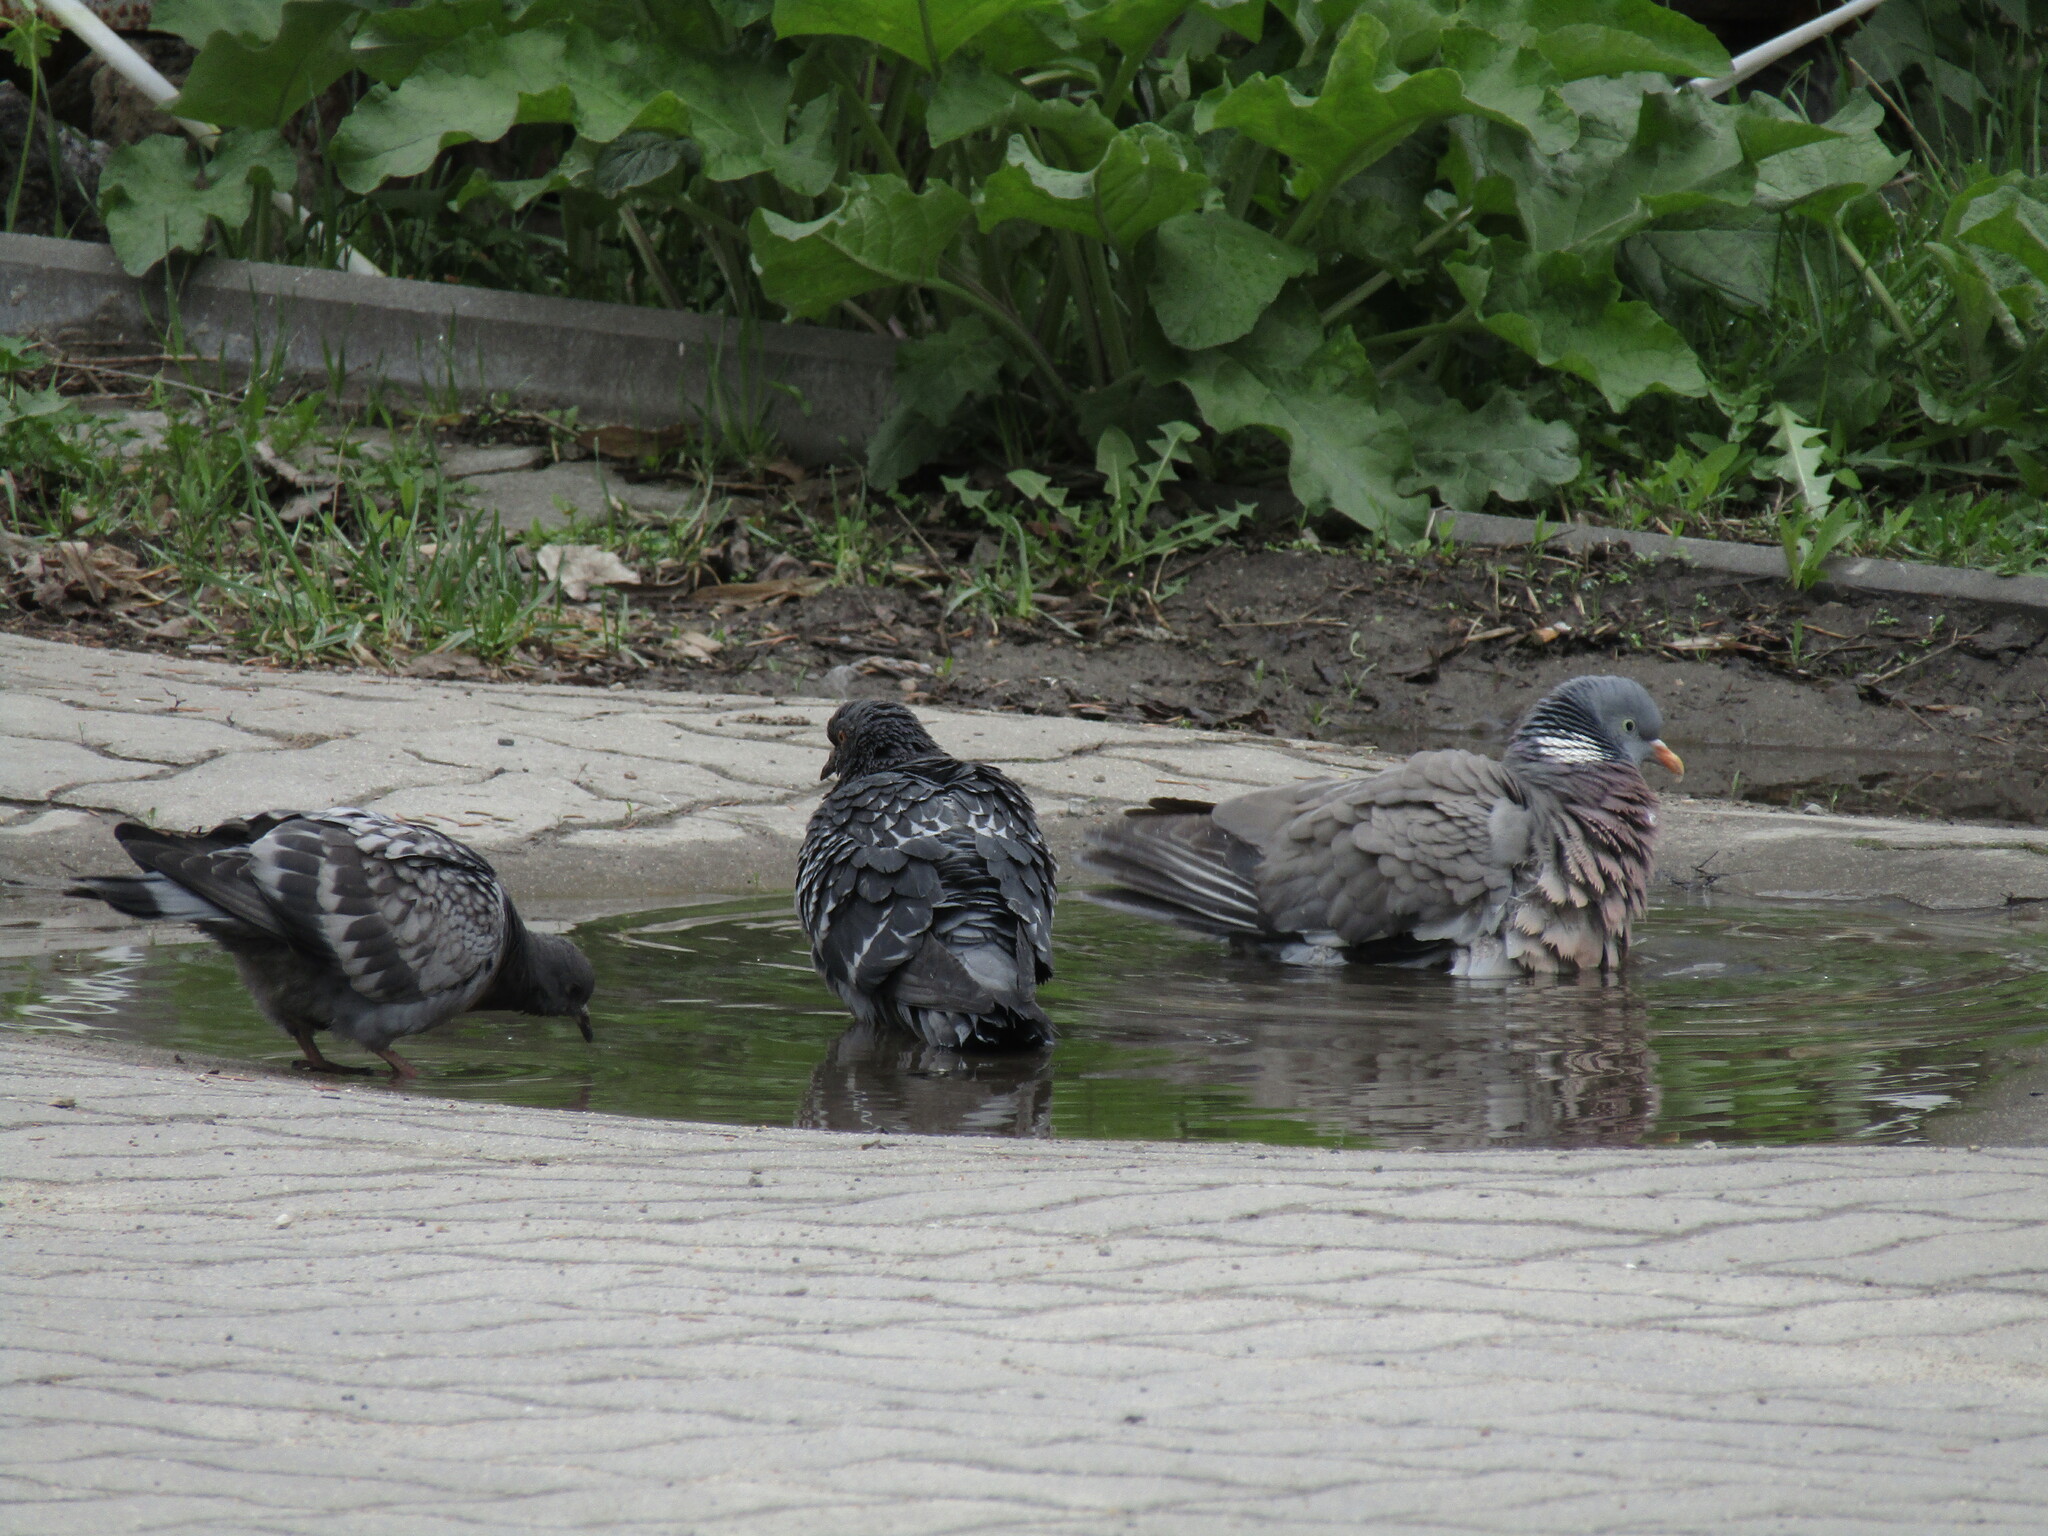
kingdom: Animalia
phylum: Chordata
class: Aves
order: Columbiformes
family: Columbidae
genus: Columba
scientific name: Columba palumbus
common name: Common wood pigeon
